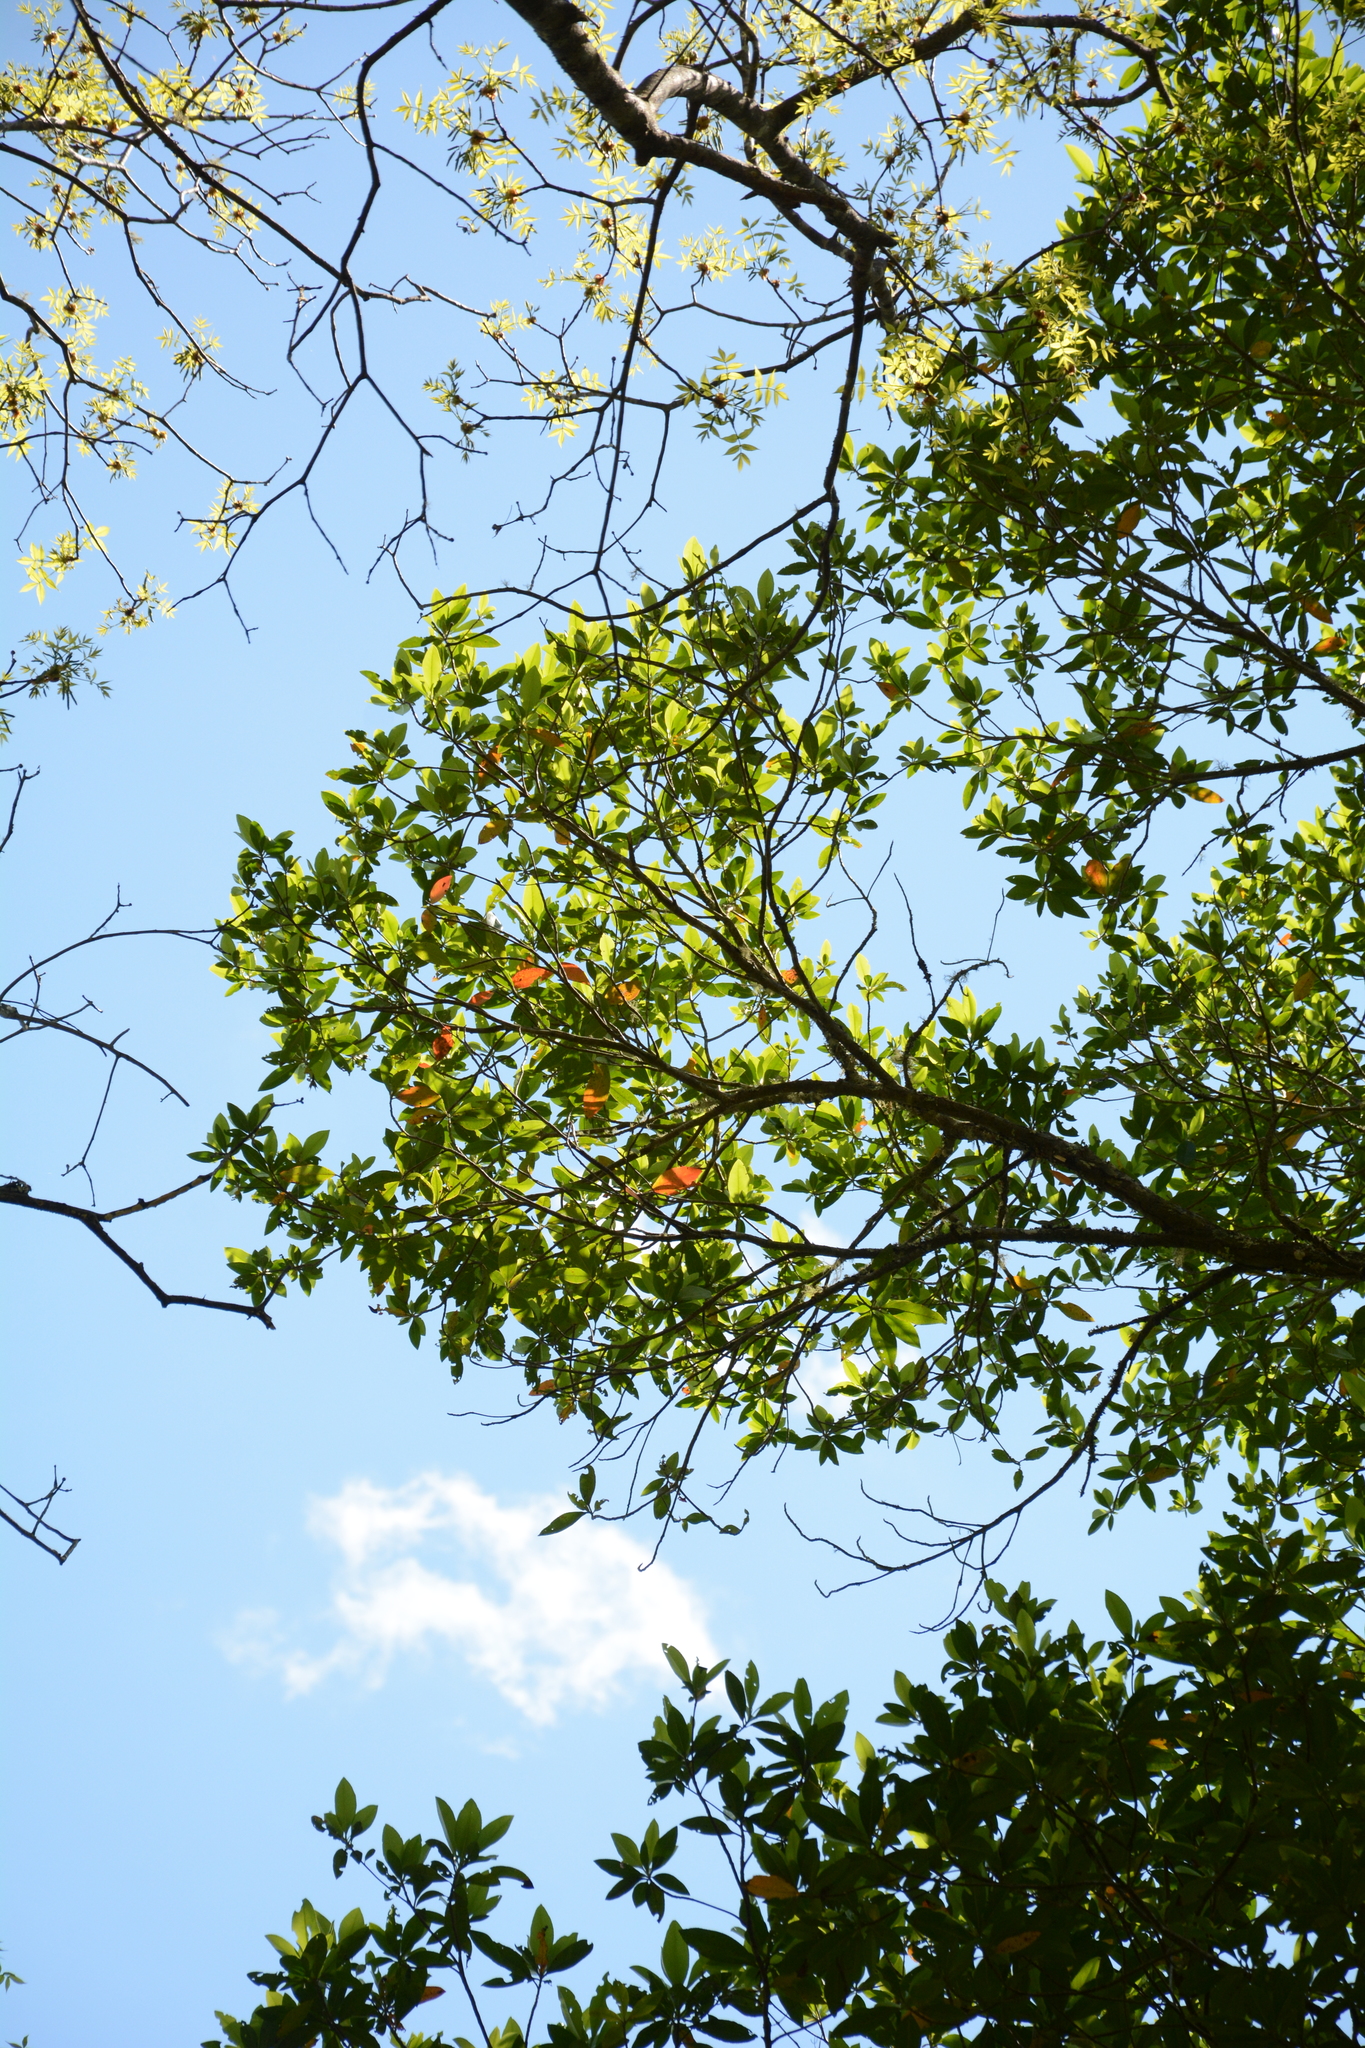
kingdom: Plantae
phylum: Tracheophyta
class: Magnoliopsida
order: Ericales
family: Theaceae
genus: Gordonia
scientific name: Gordonia lasianthus
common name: Loblolly bay
